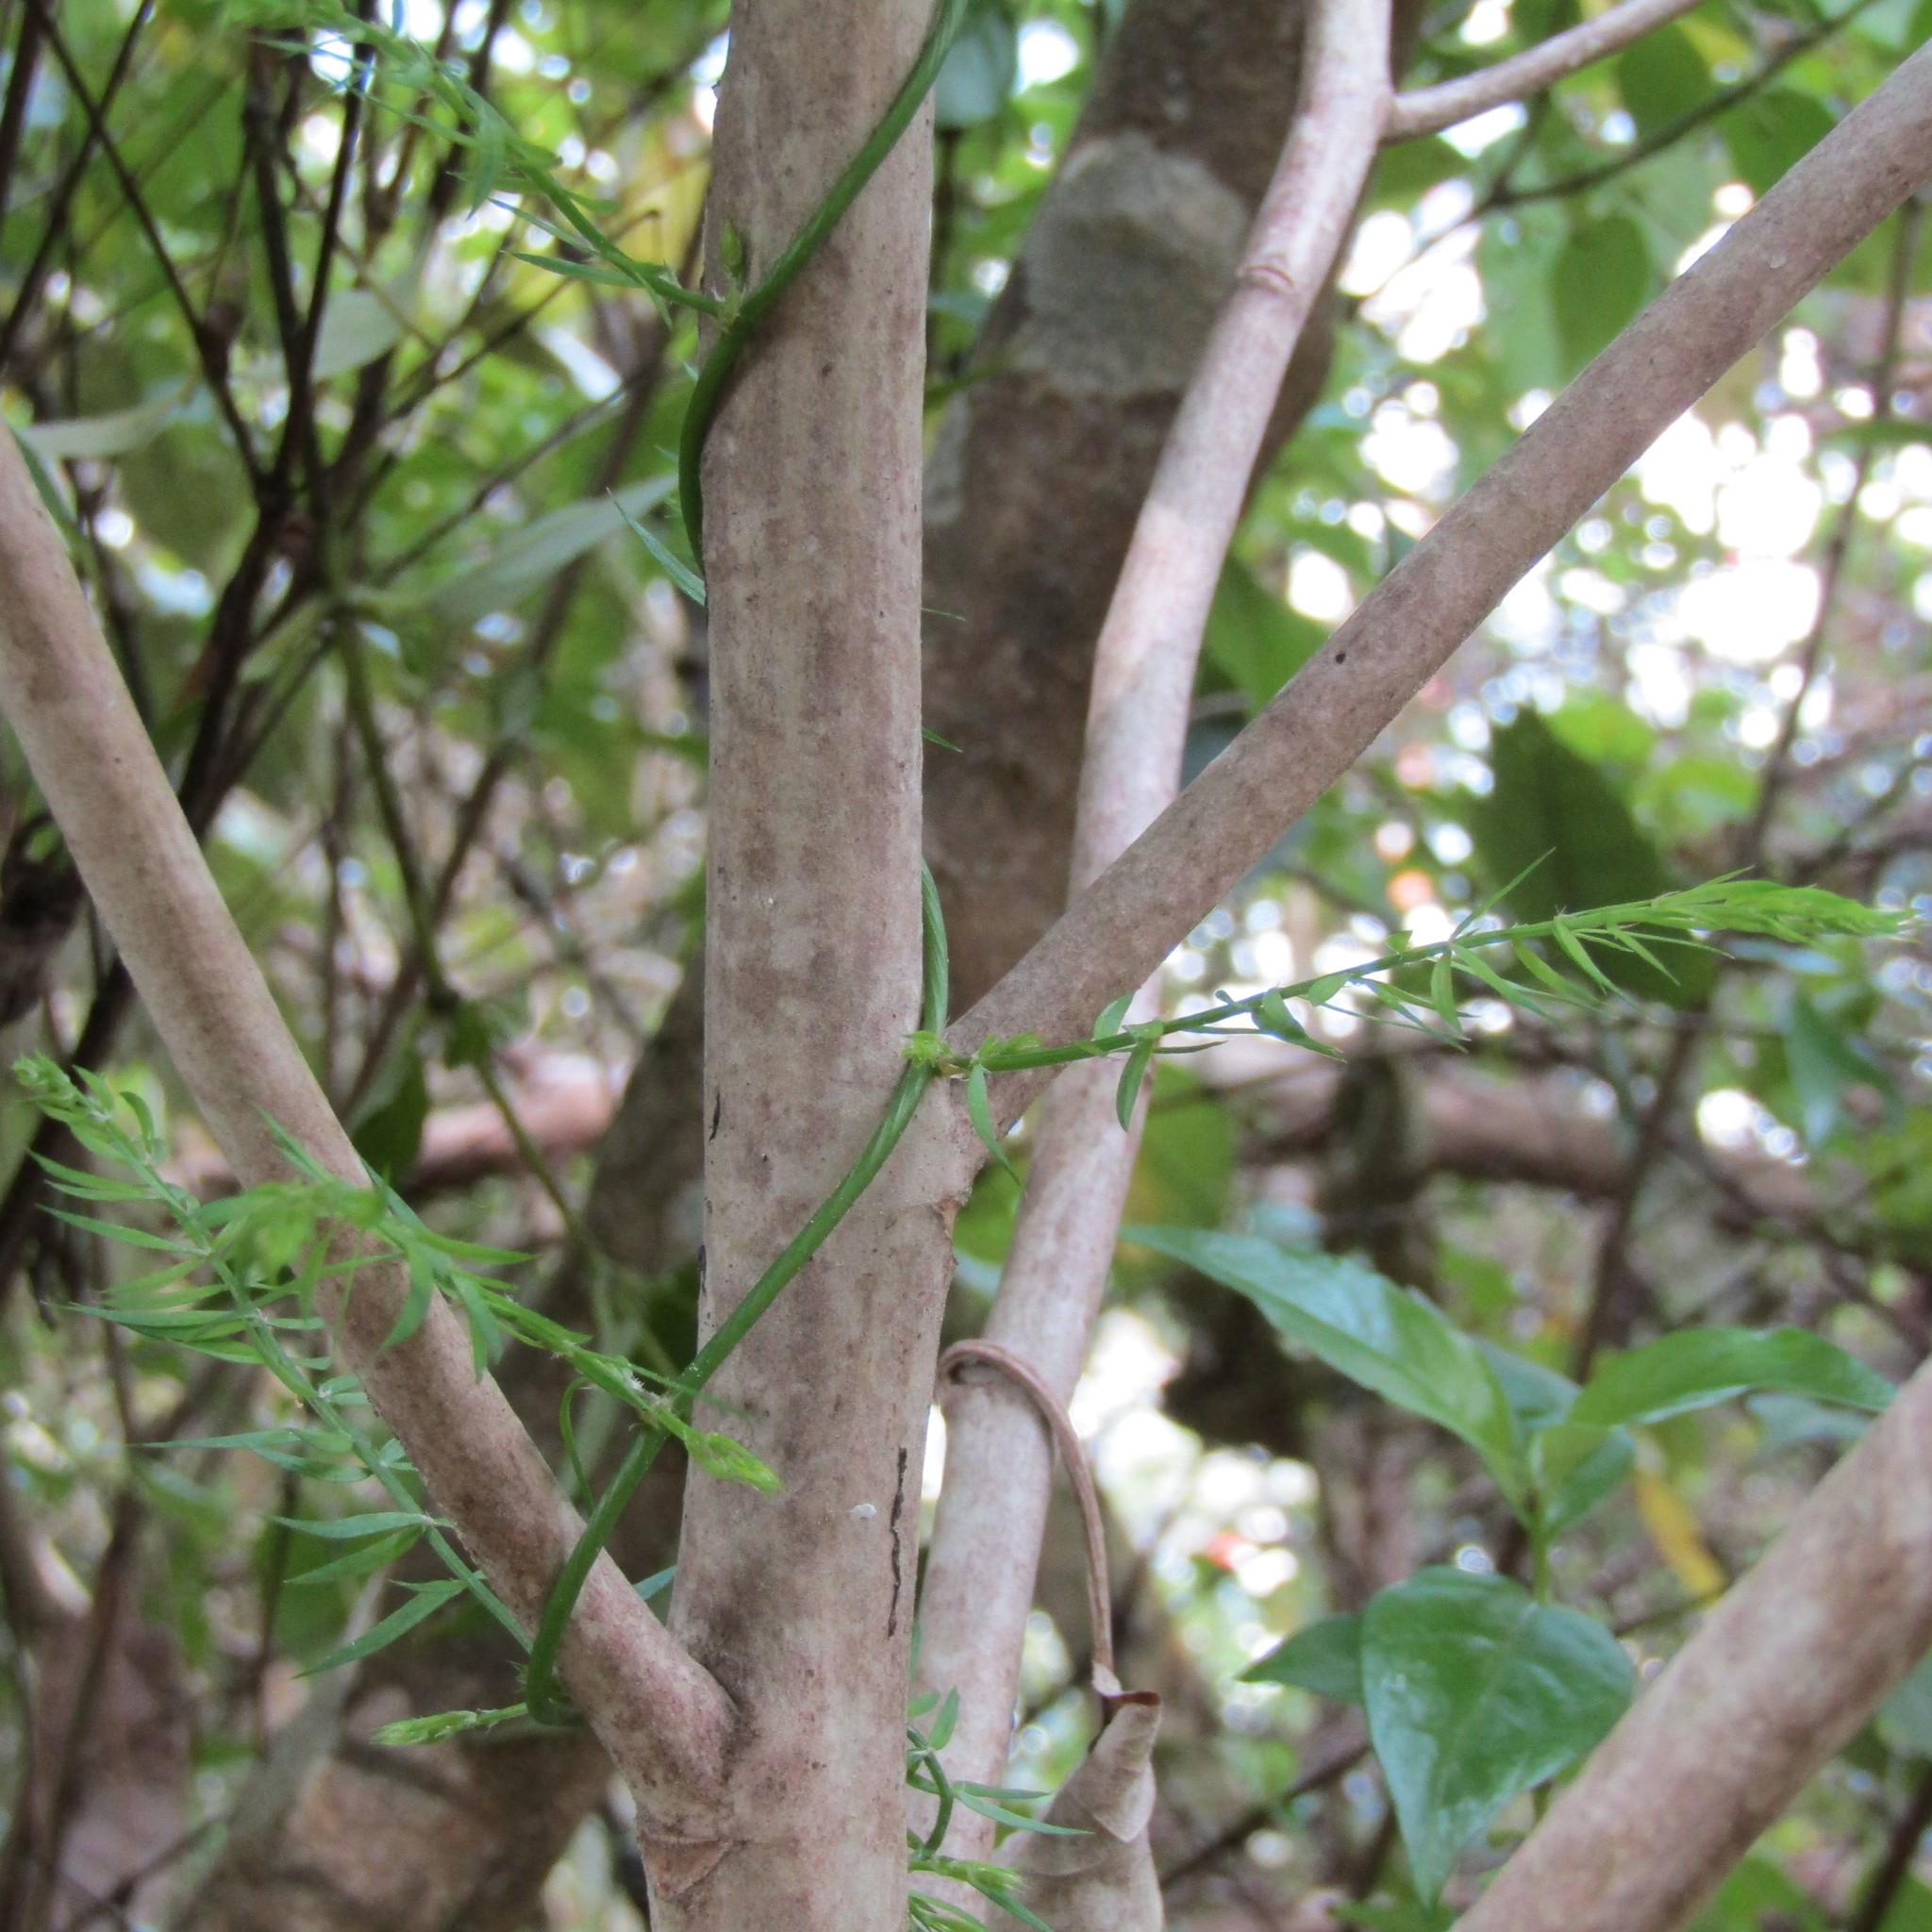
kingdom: Plantae
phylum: Tracheophyta
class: Liliopsida
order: Asparagales
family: Asparagaceae
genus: Asparagus
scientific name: Asparagus scandens
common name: Asparagus-fern
